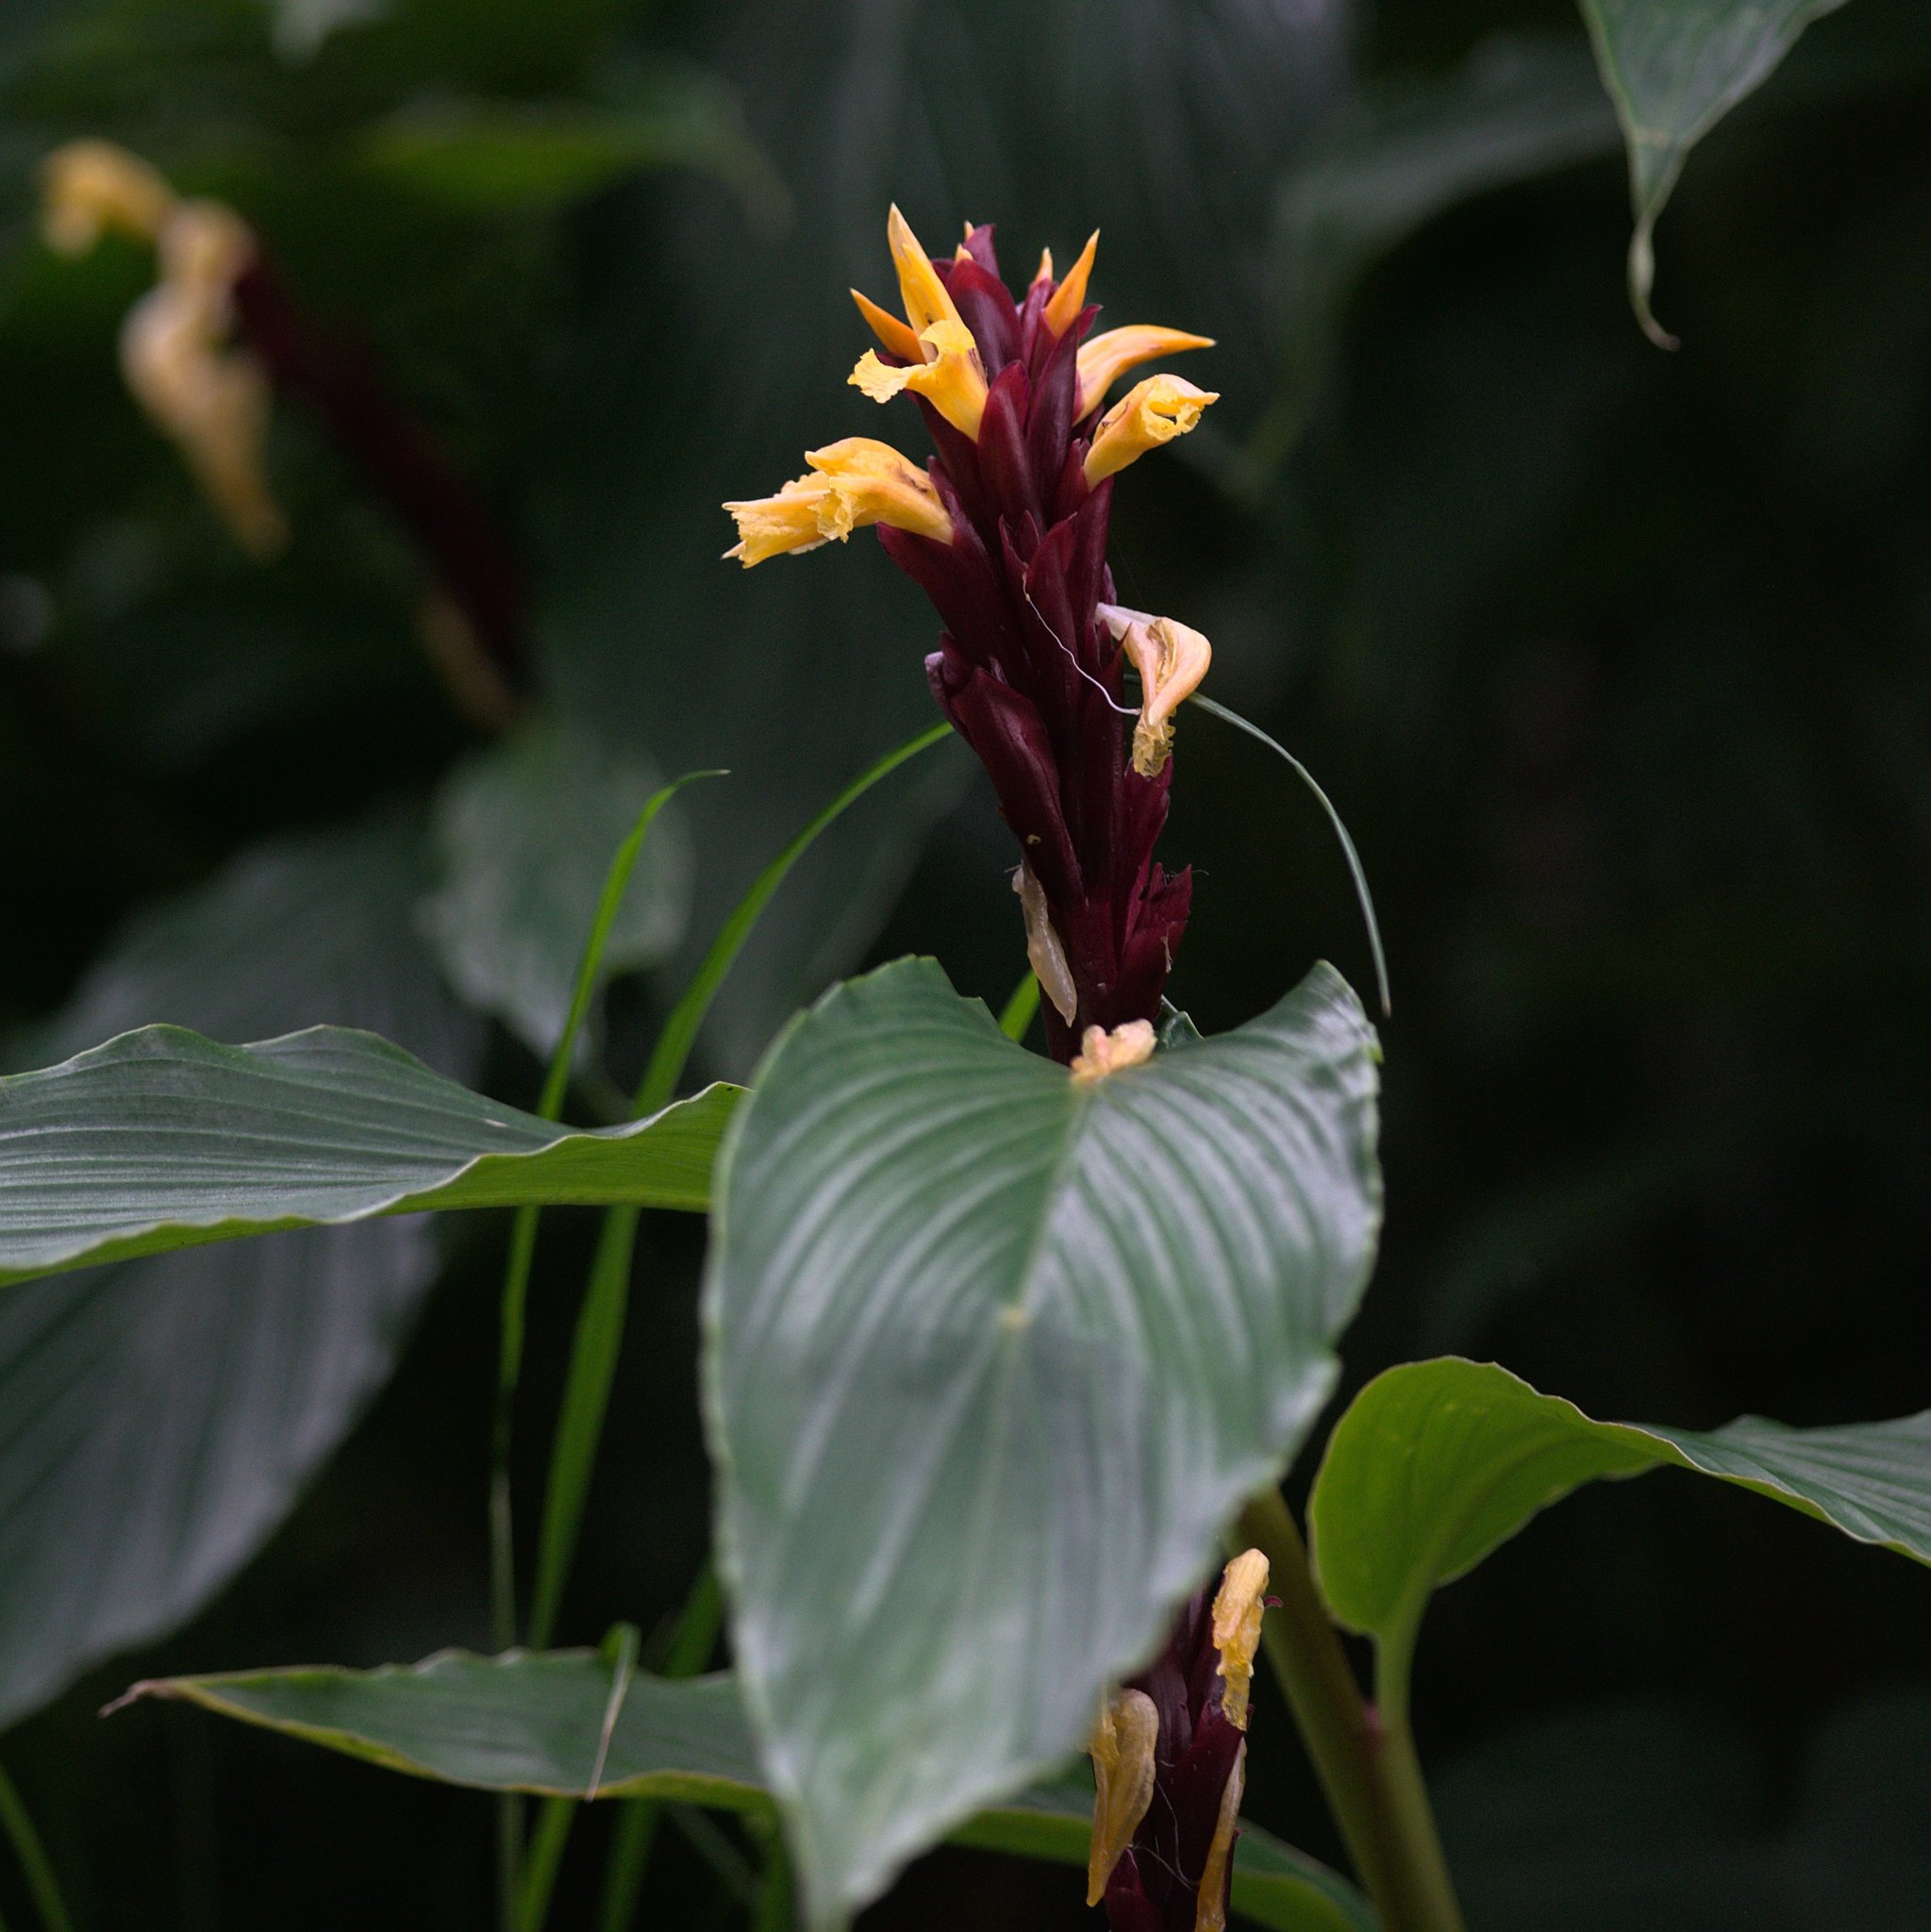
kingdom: Plantae
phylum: Tracheophyta
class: Liliopsida
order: Zingiberales
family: Zingiberaceae
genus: Cautleya
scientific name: Cautleya spicata
